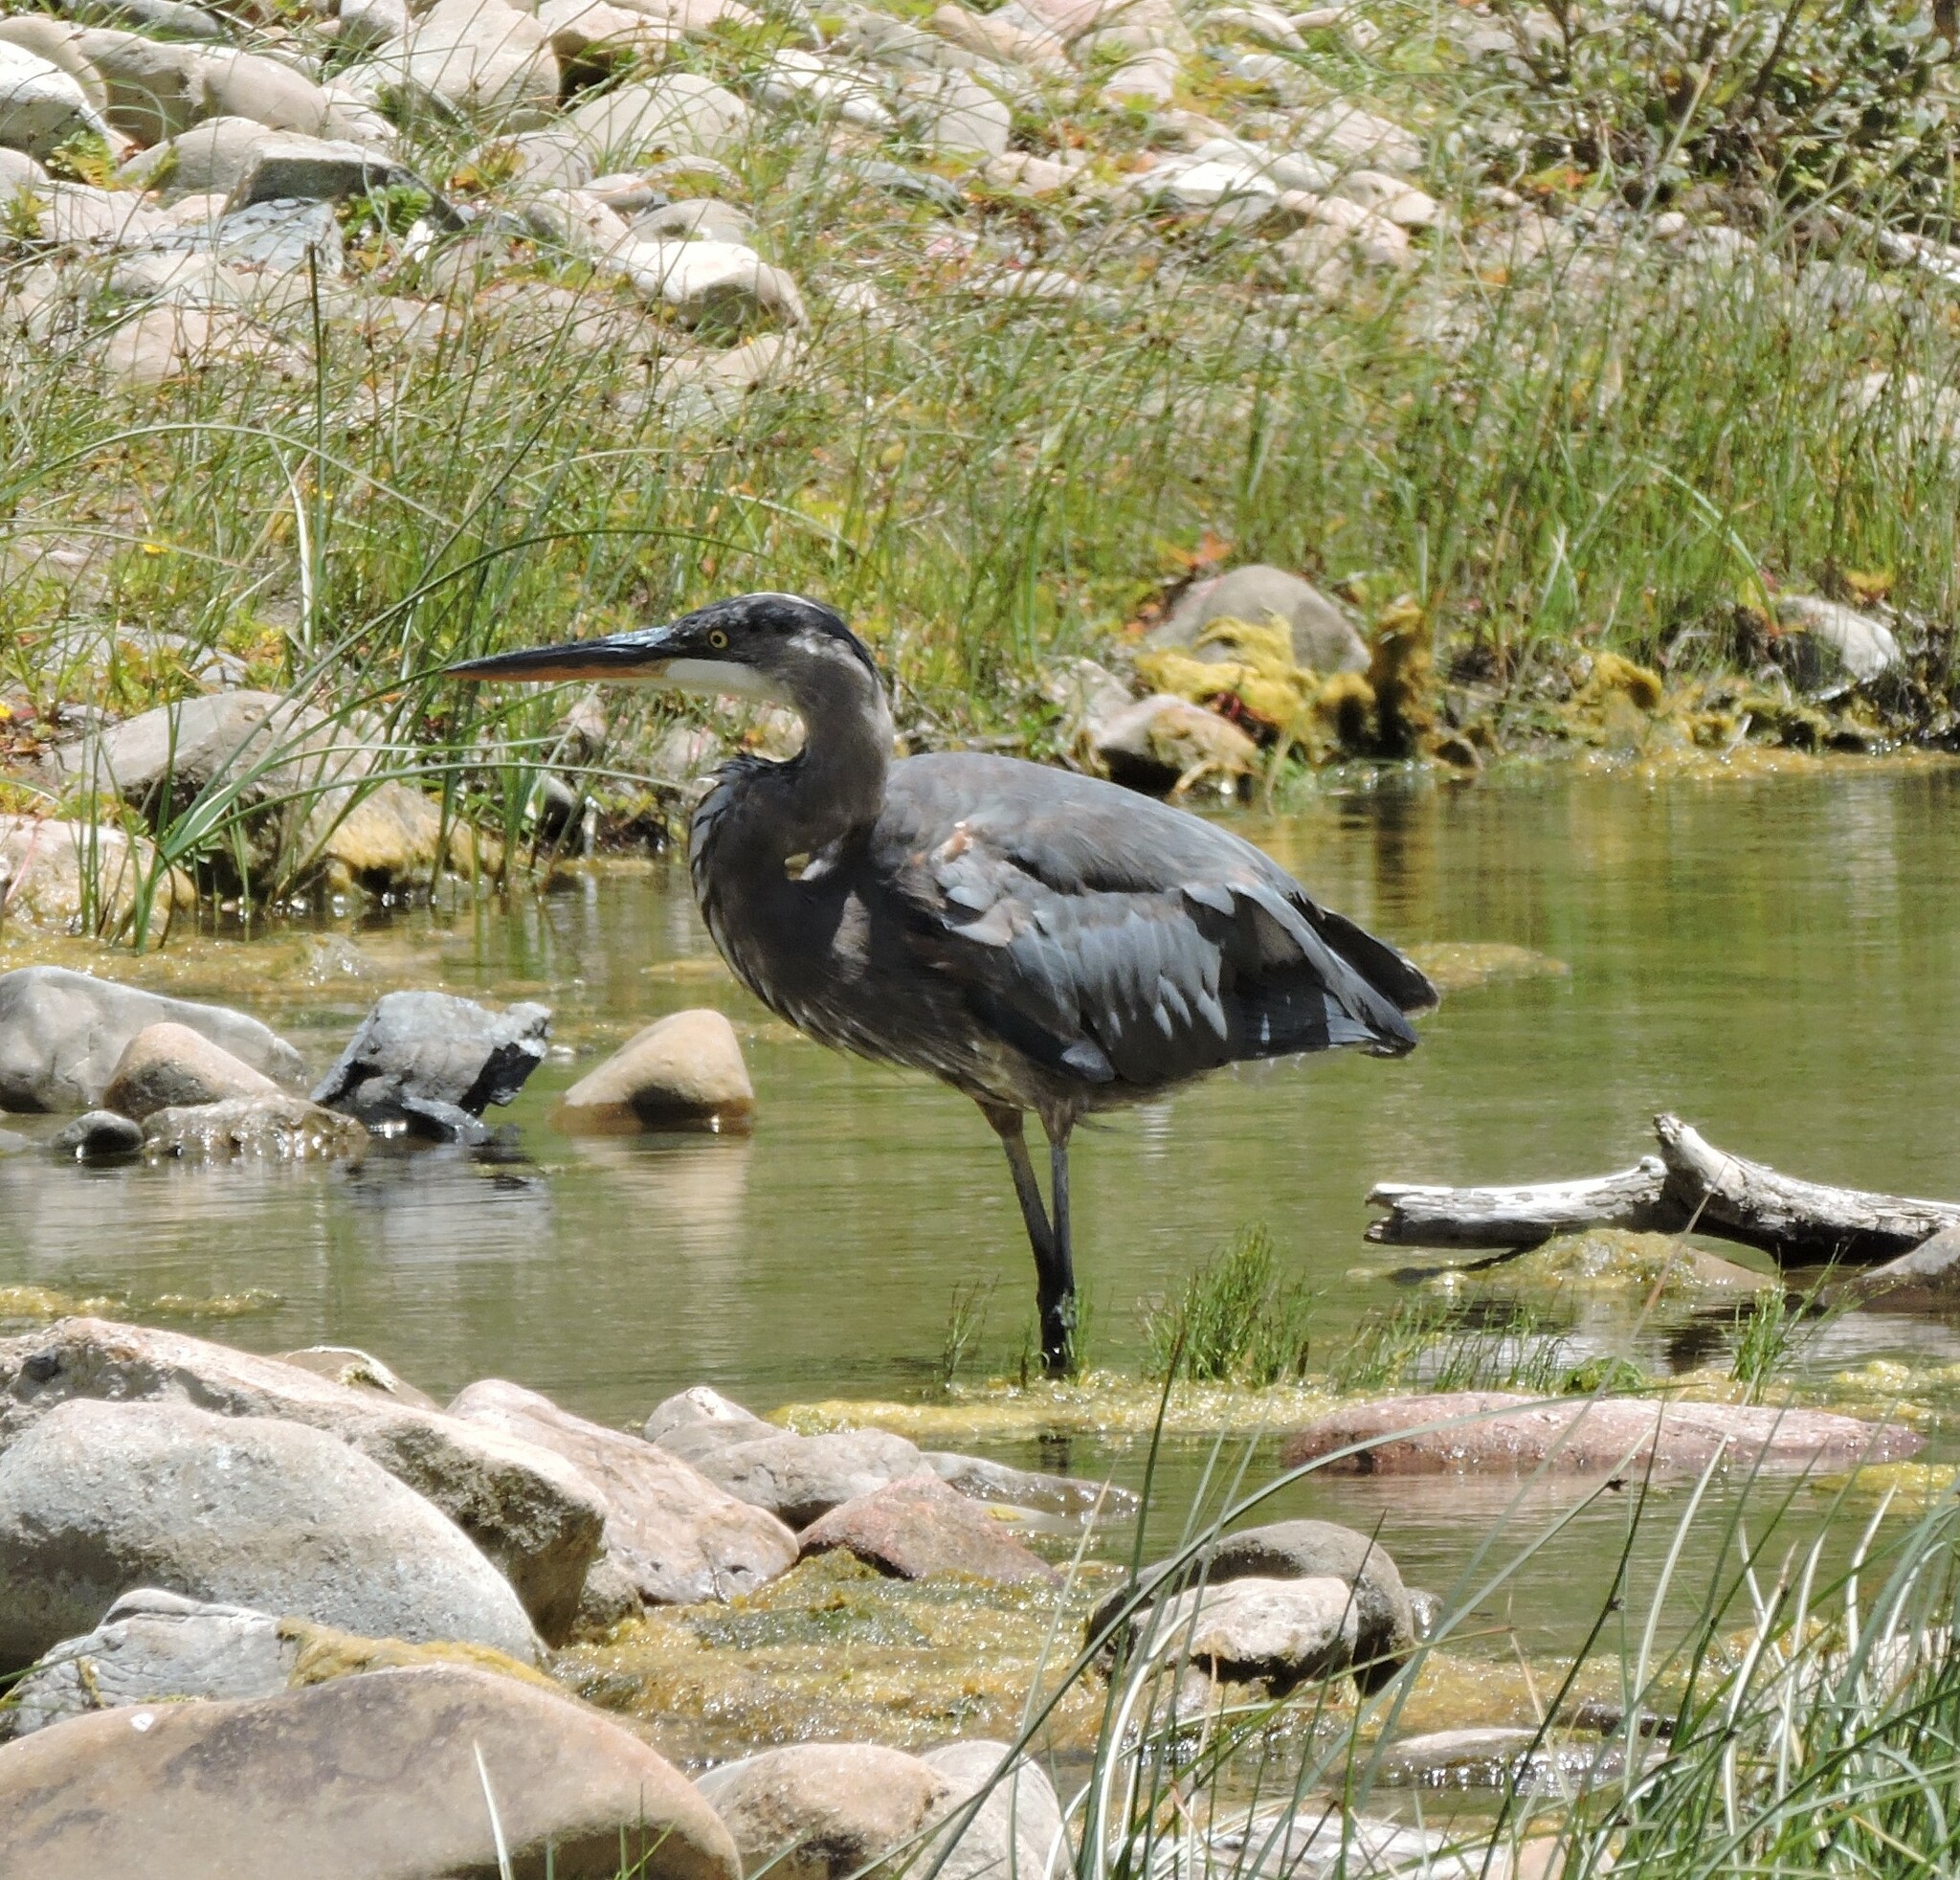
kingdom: Animalia
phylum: Chordata
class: Aves
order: Pelecaniformes
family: Ardeidae
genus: Ardea
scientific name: Ardea herodias
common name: Great blue heron
